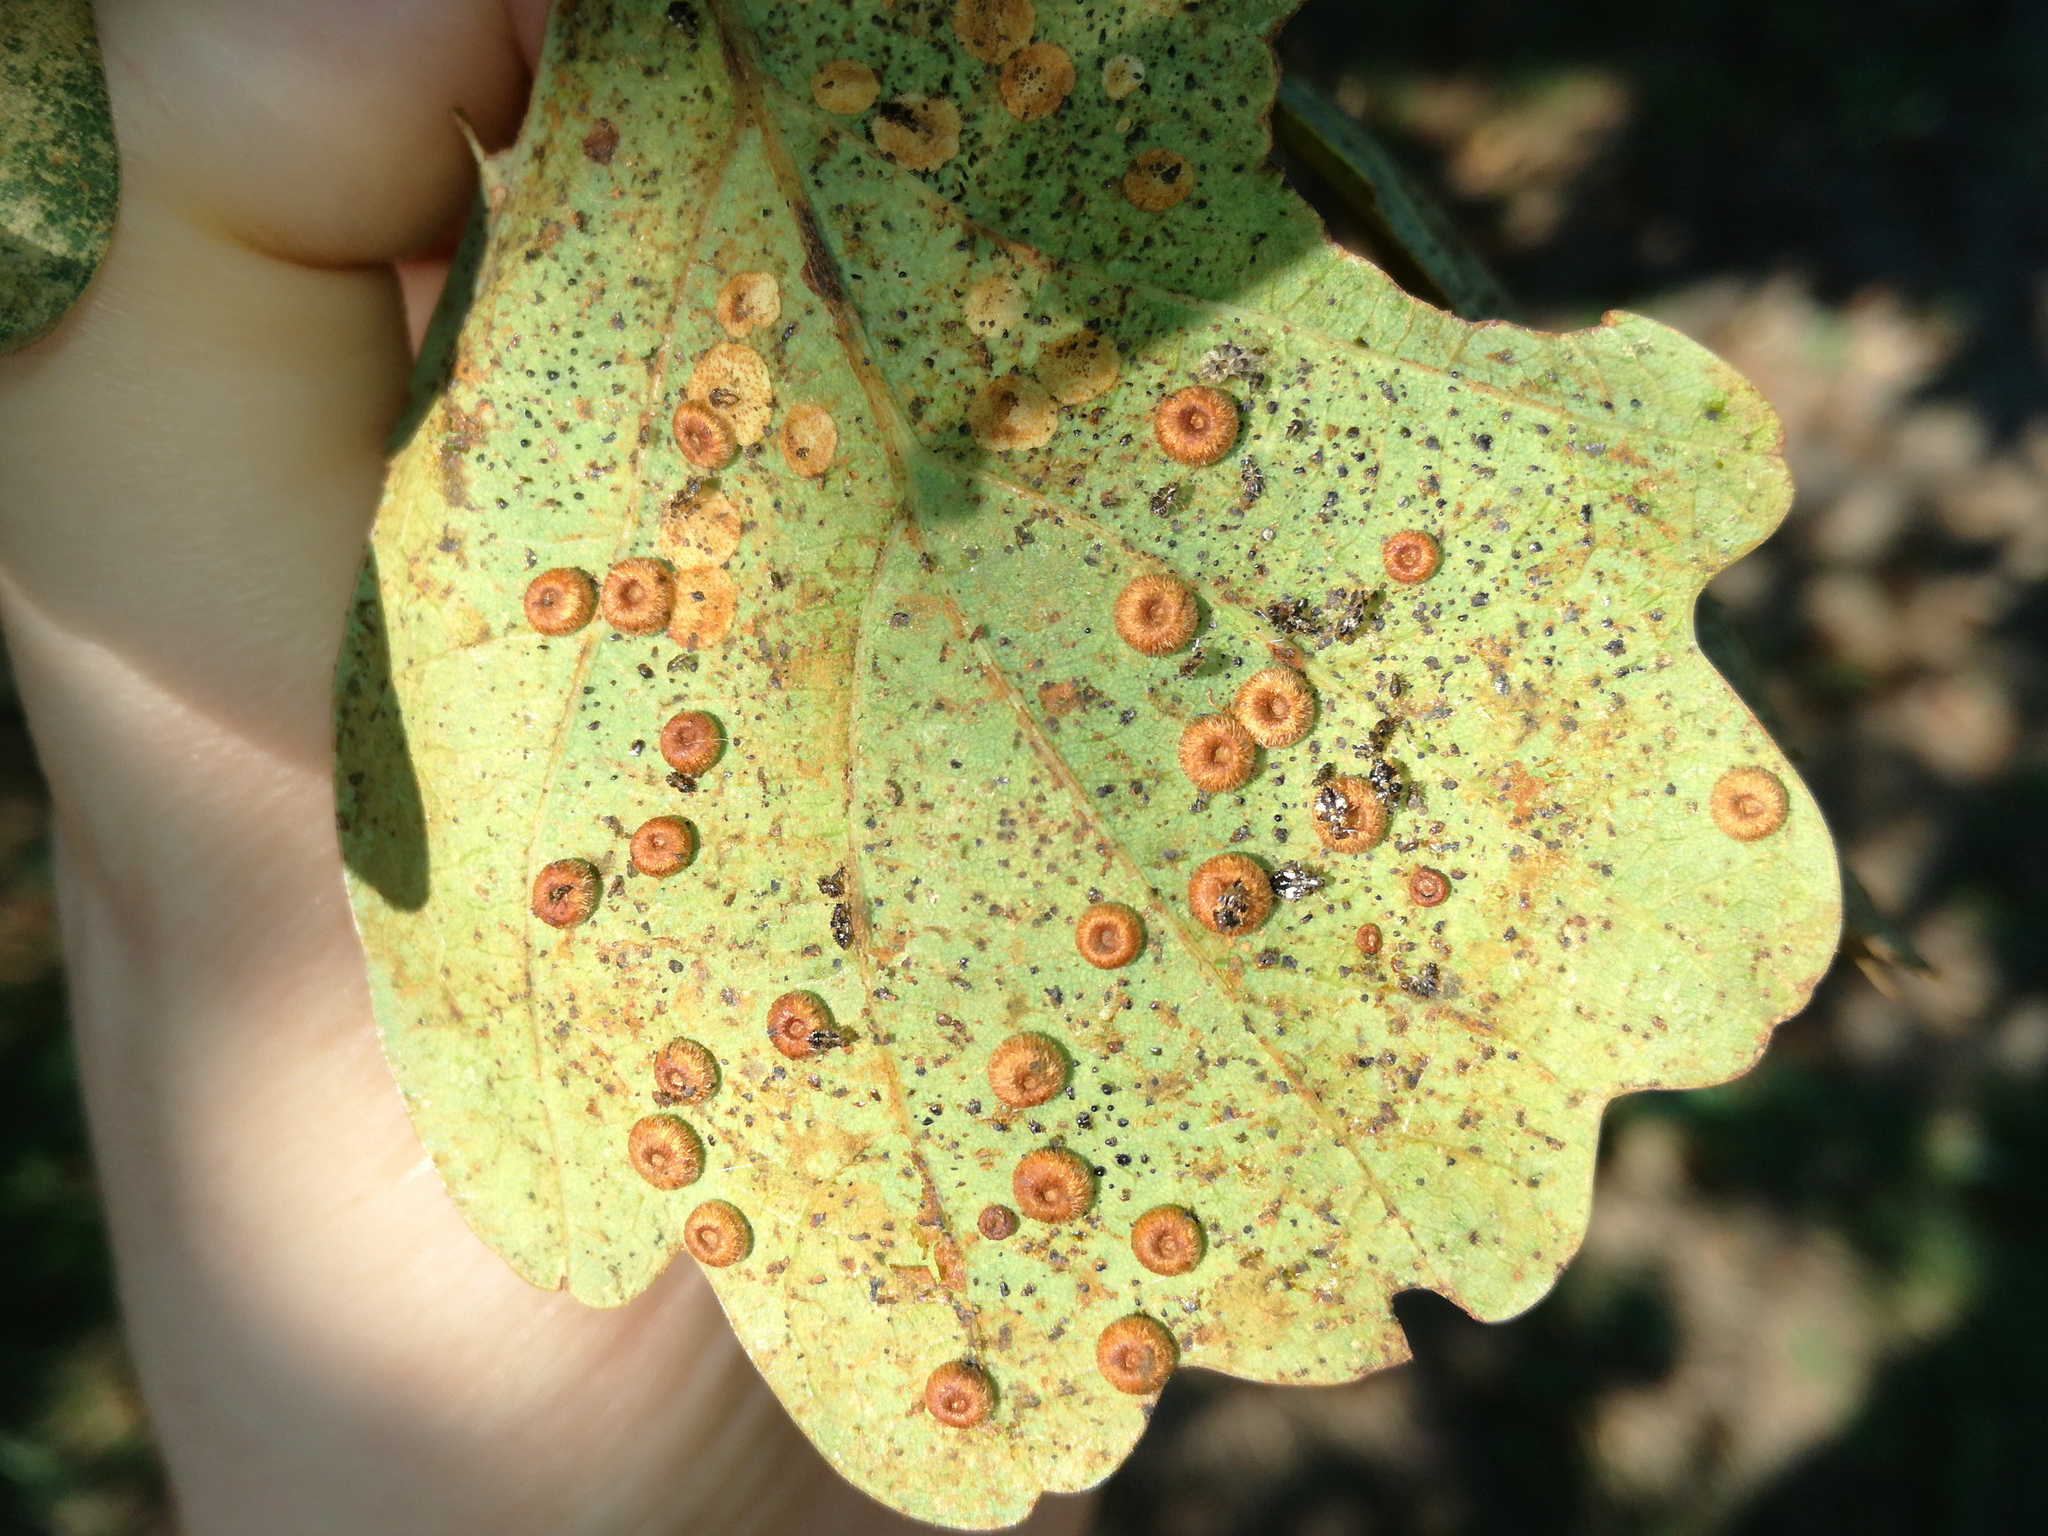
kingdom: Animalia
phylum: Arthropoda
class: Insecta
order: Hymenoptera
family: Cynipidae
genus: Neuroterus
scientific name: Neuroterus numismalis
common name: Silk-button spangle gall
